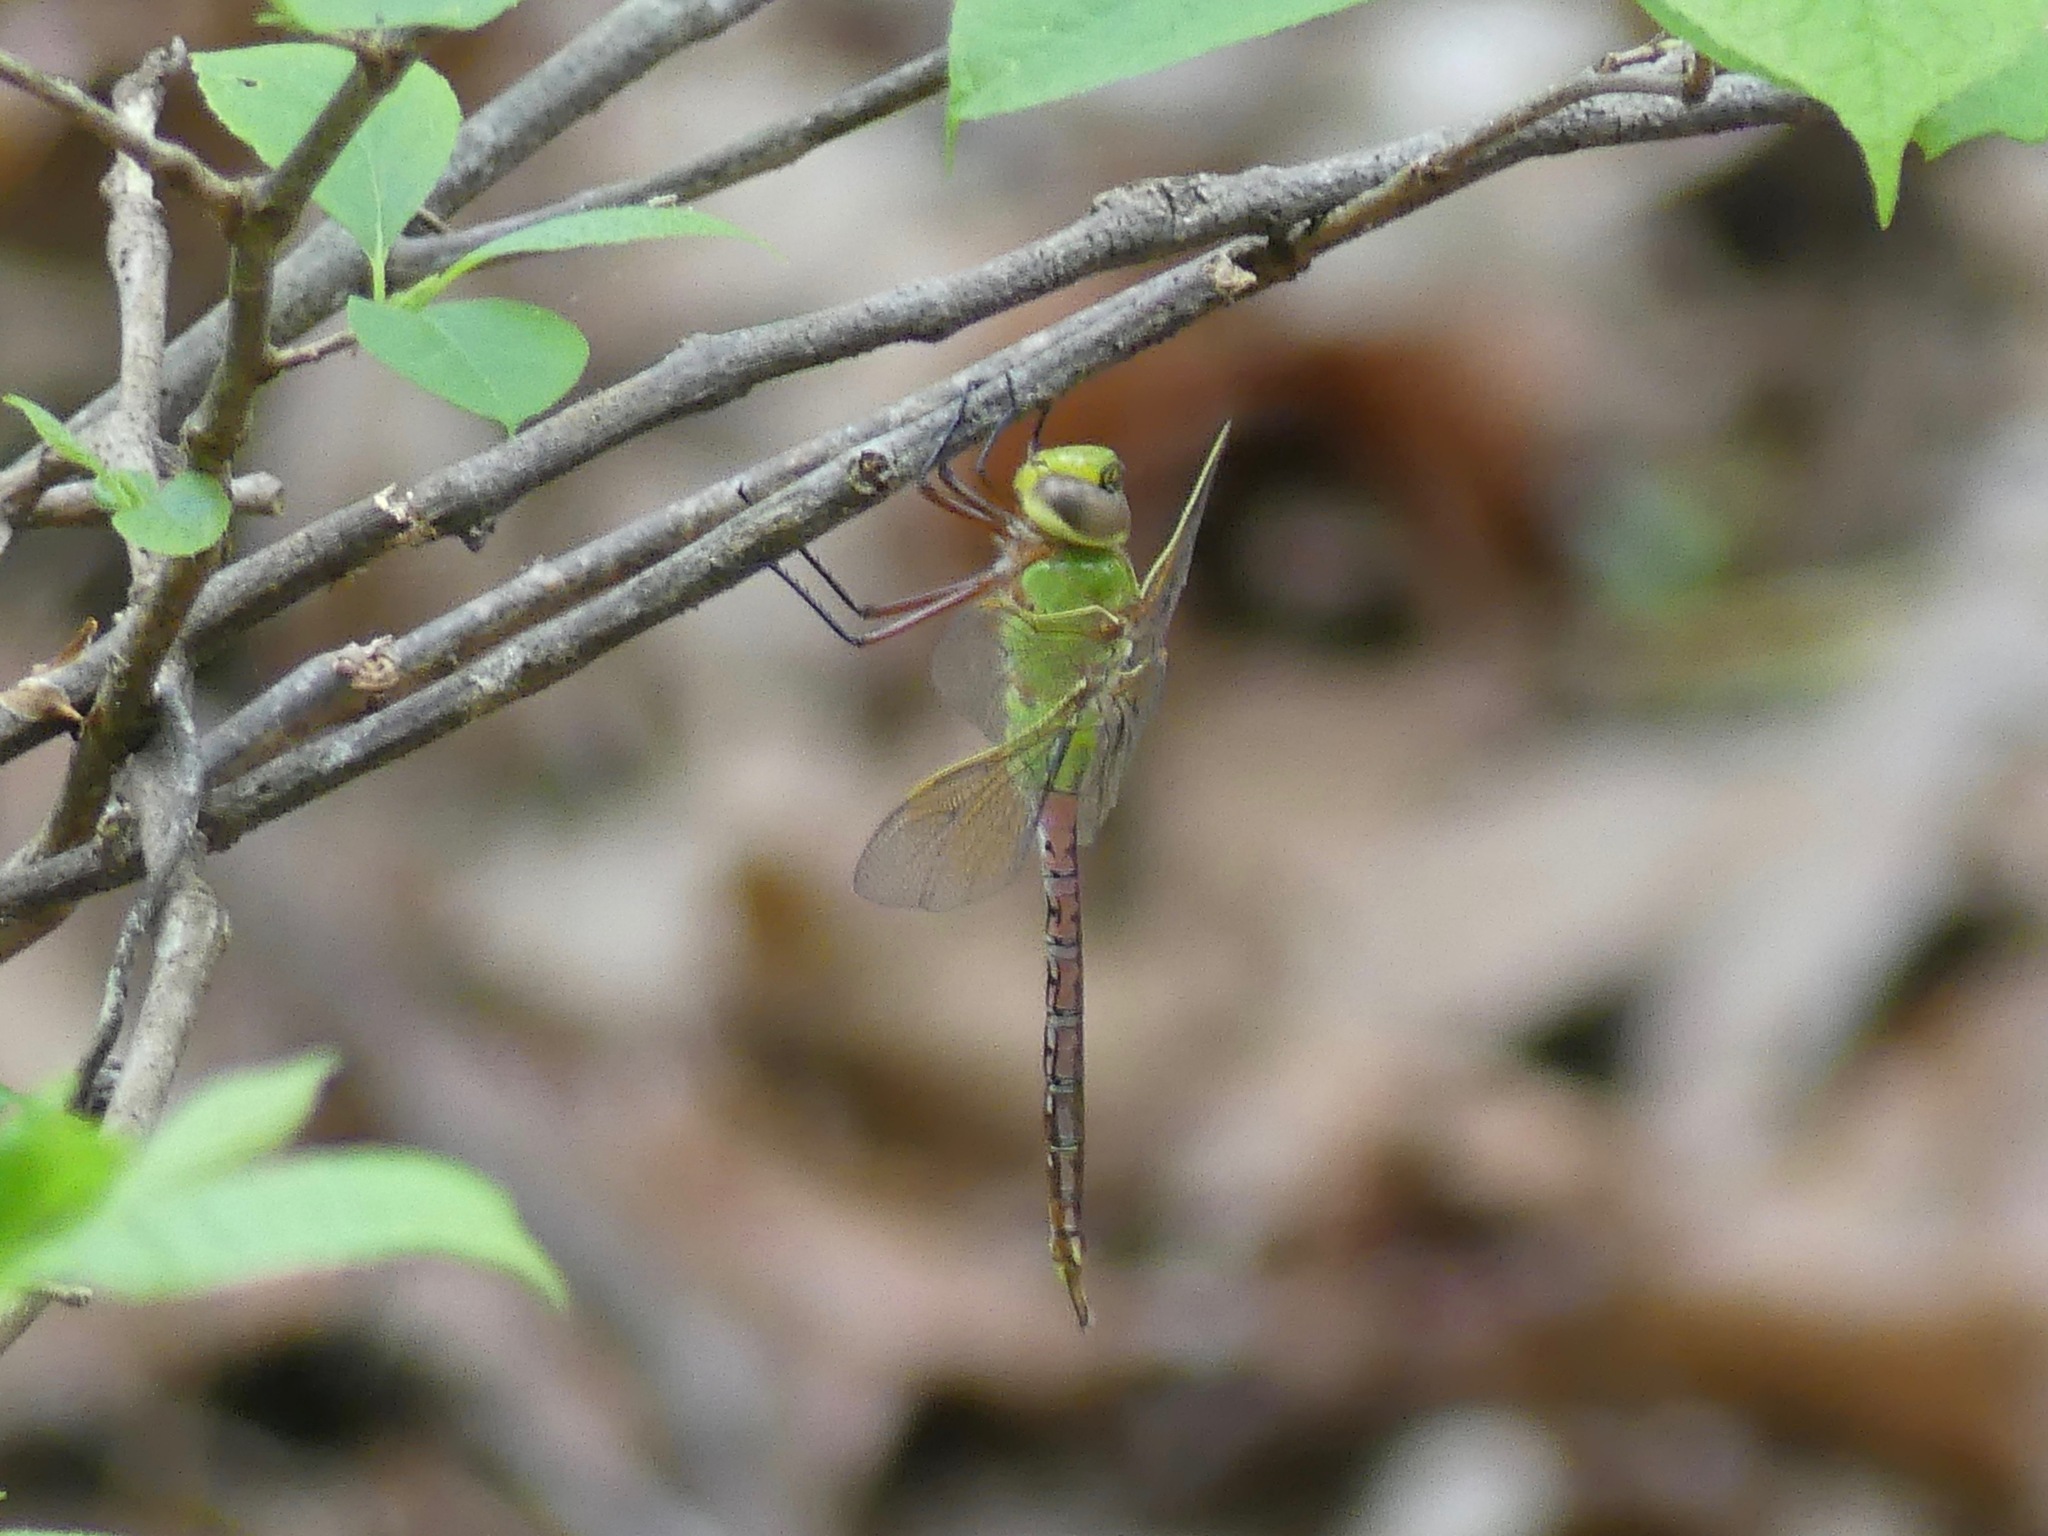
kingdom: Animalia
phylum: Arthropoda
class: Insecta
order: Odonata
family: Aeshnidae
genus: Anax
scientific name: Anax junius
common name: Common green darner
